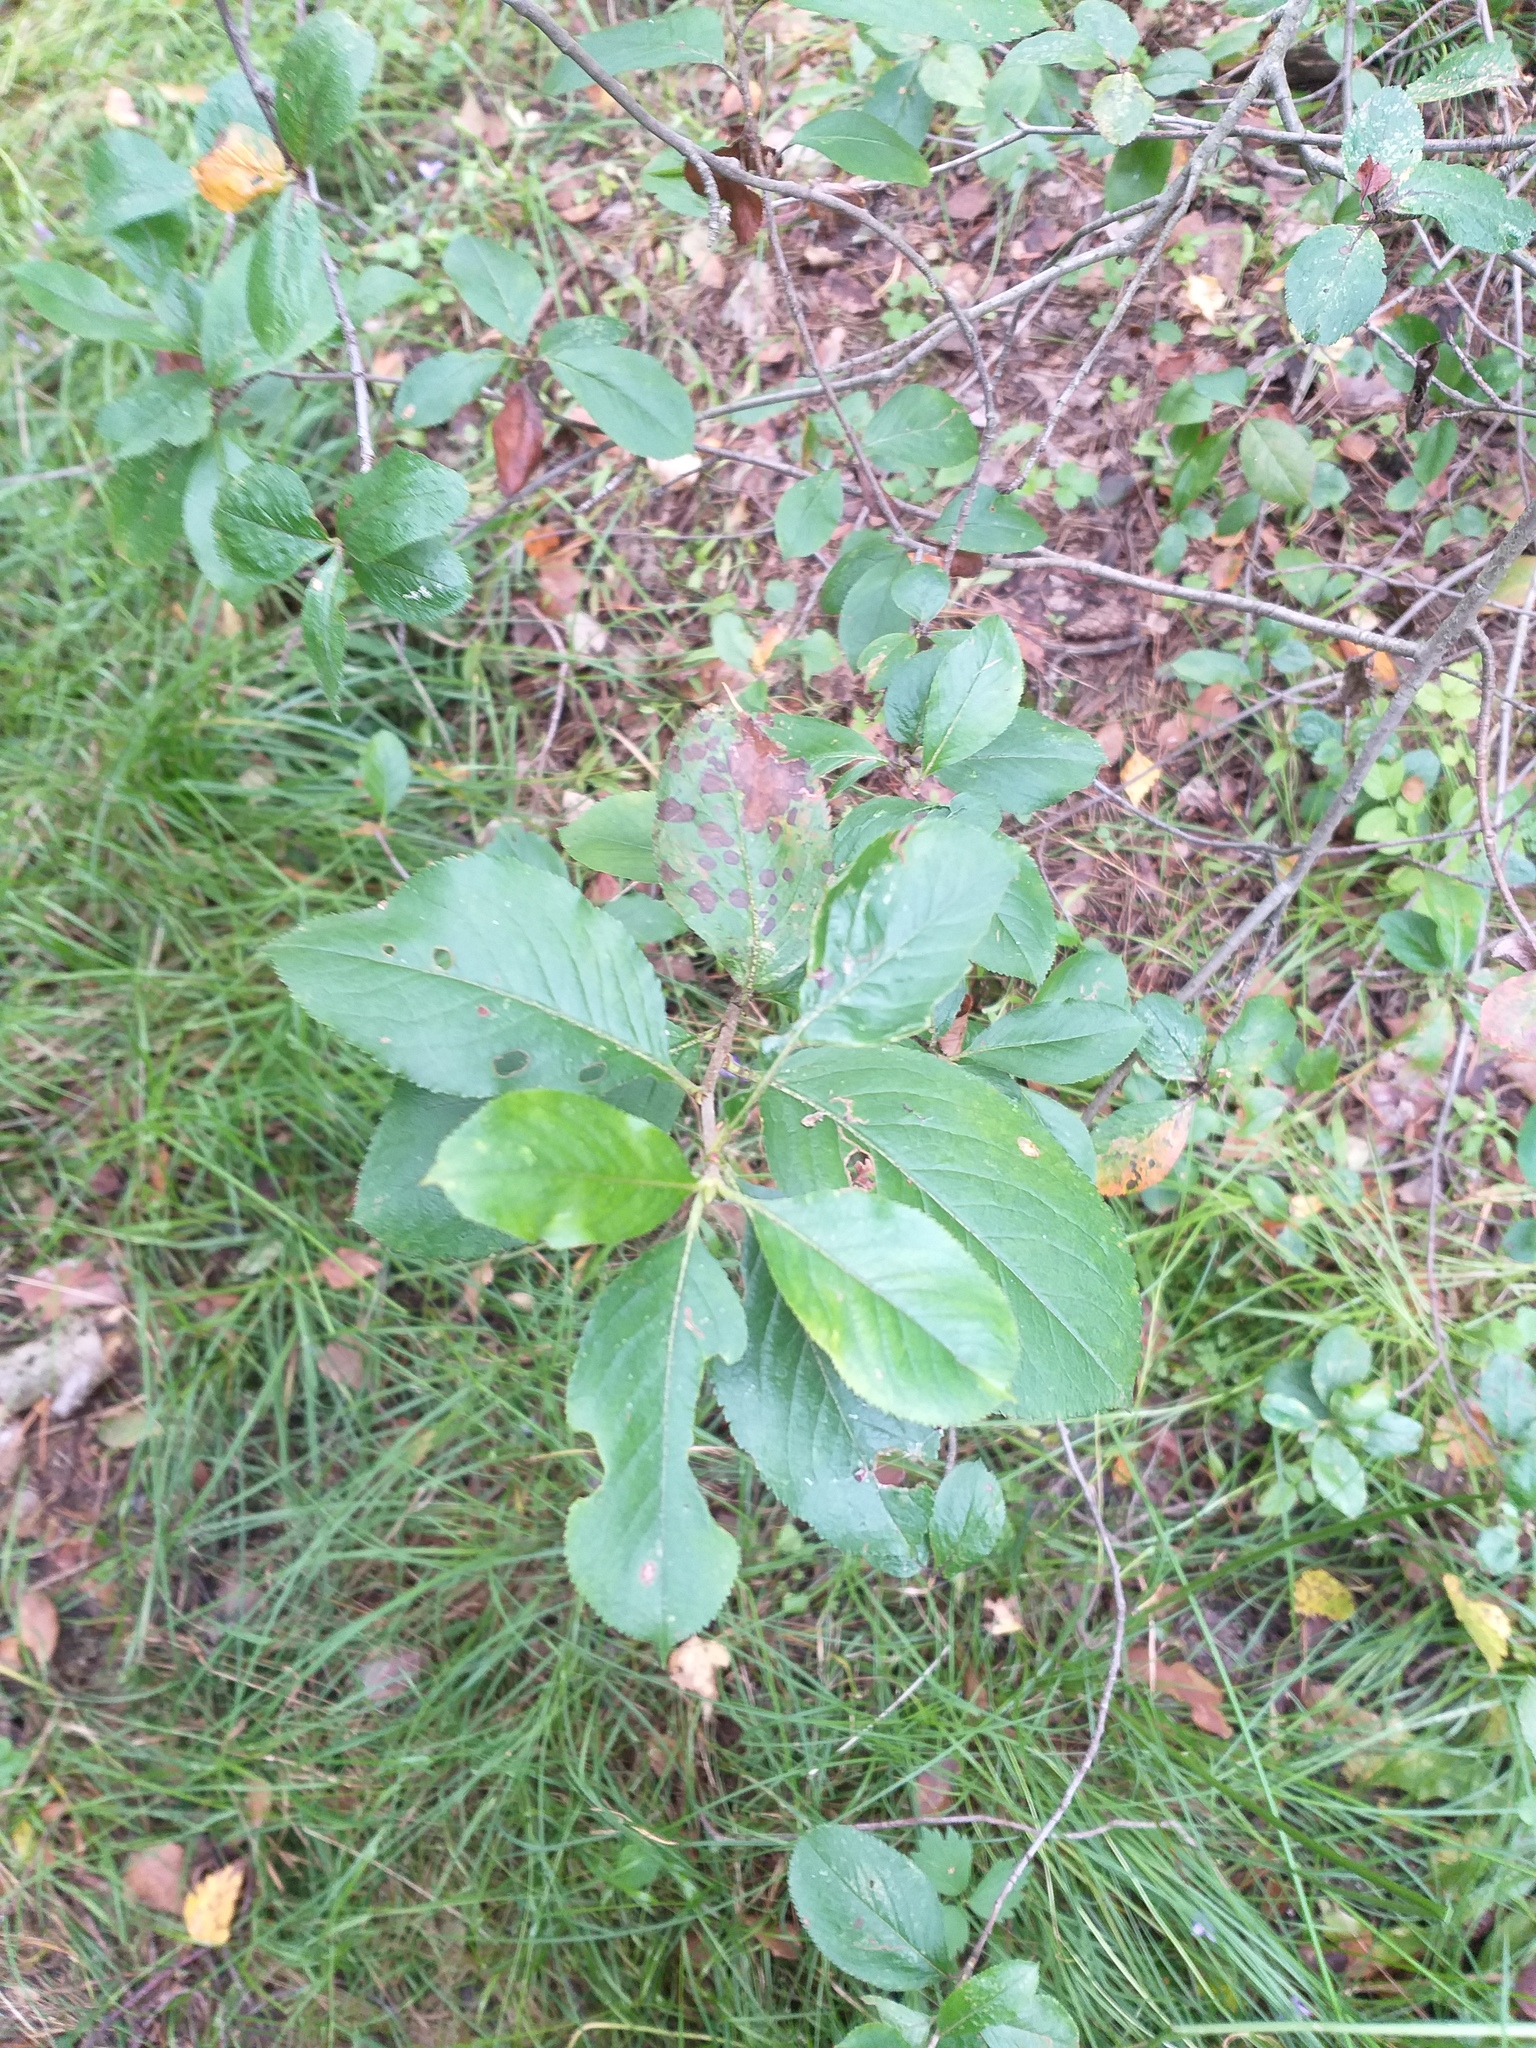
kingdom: Plantae
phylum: Tracheophyta
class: Magnoliopsida
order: Rosales
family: Rosaceae
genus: Sorbaronia
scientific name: Sorbaronia arsenii
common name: Arsène's mountain-ash
